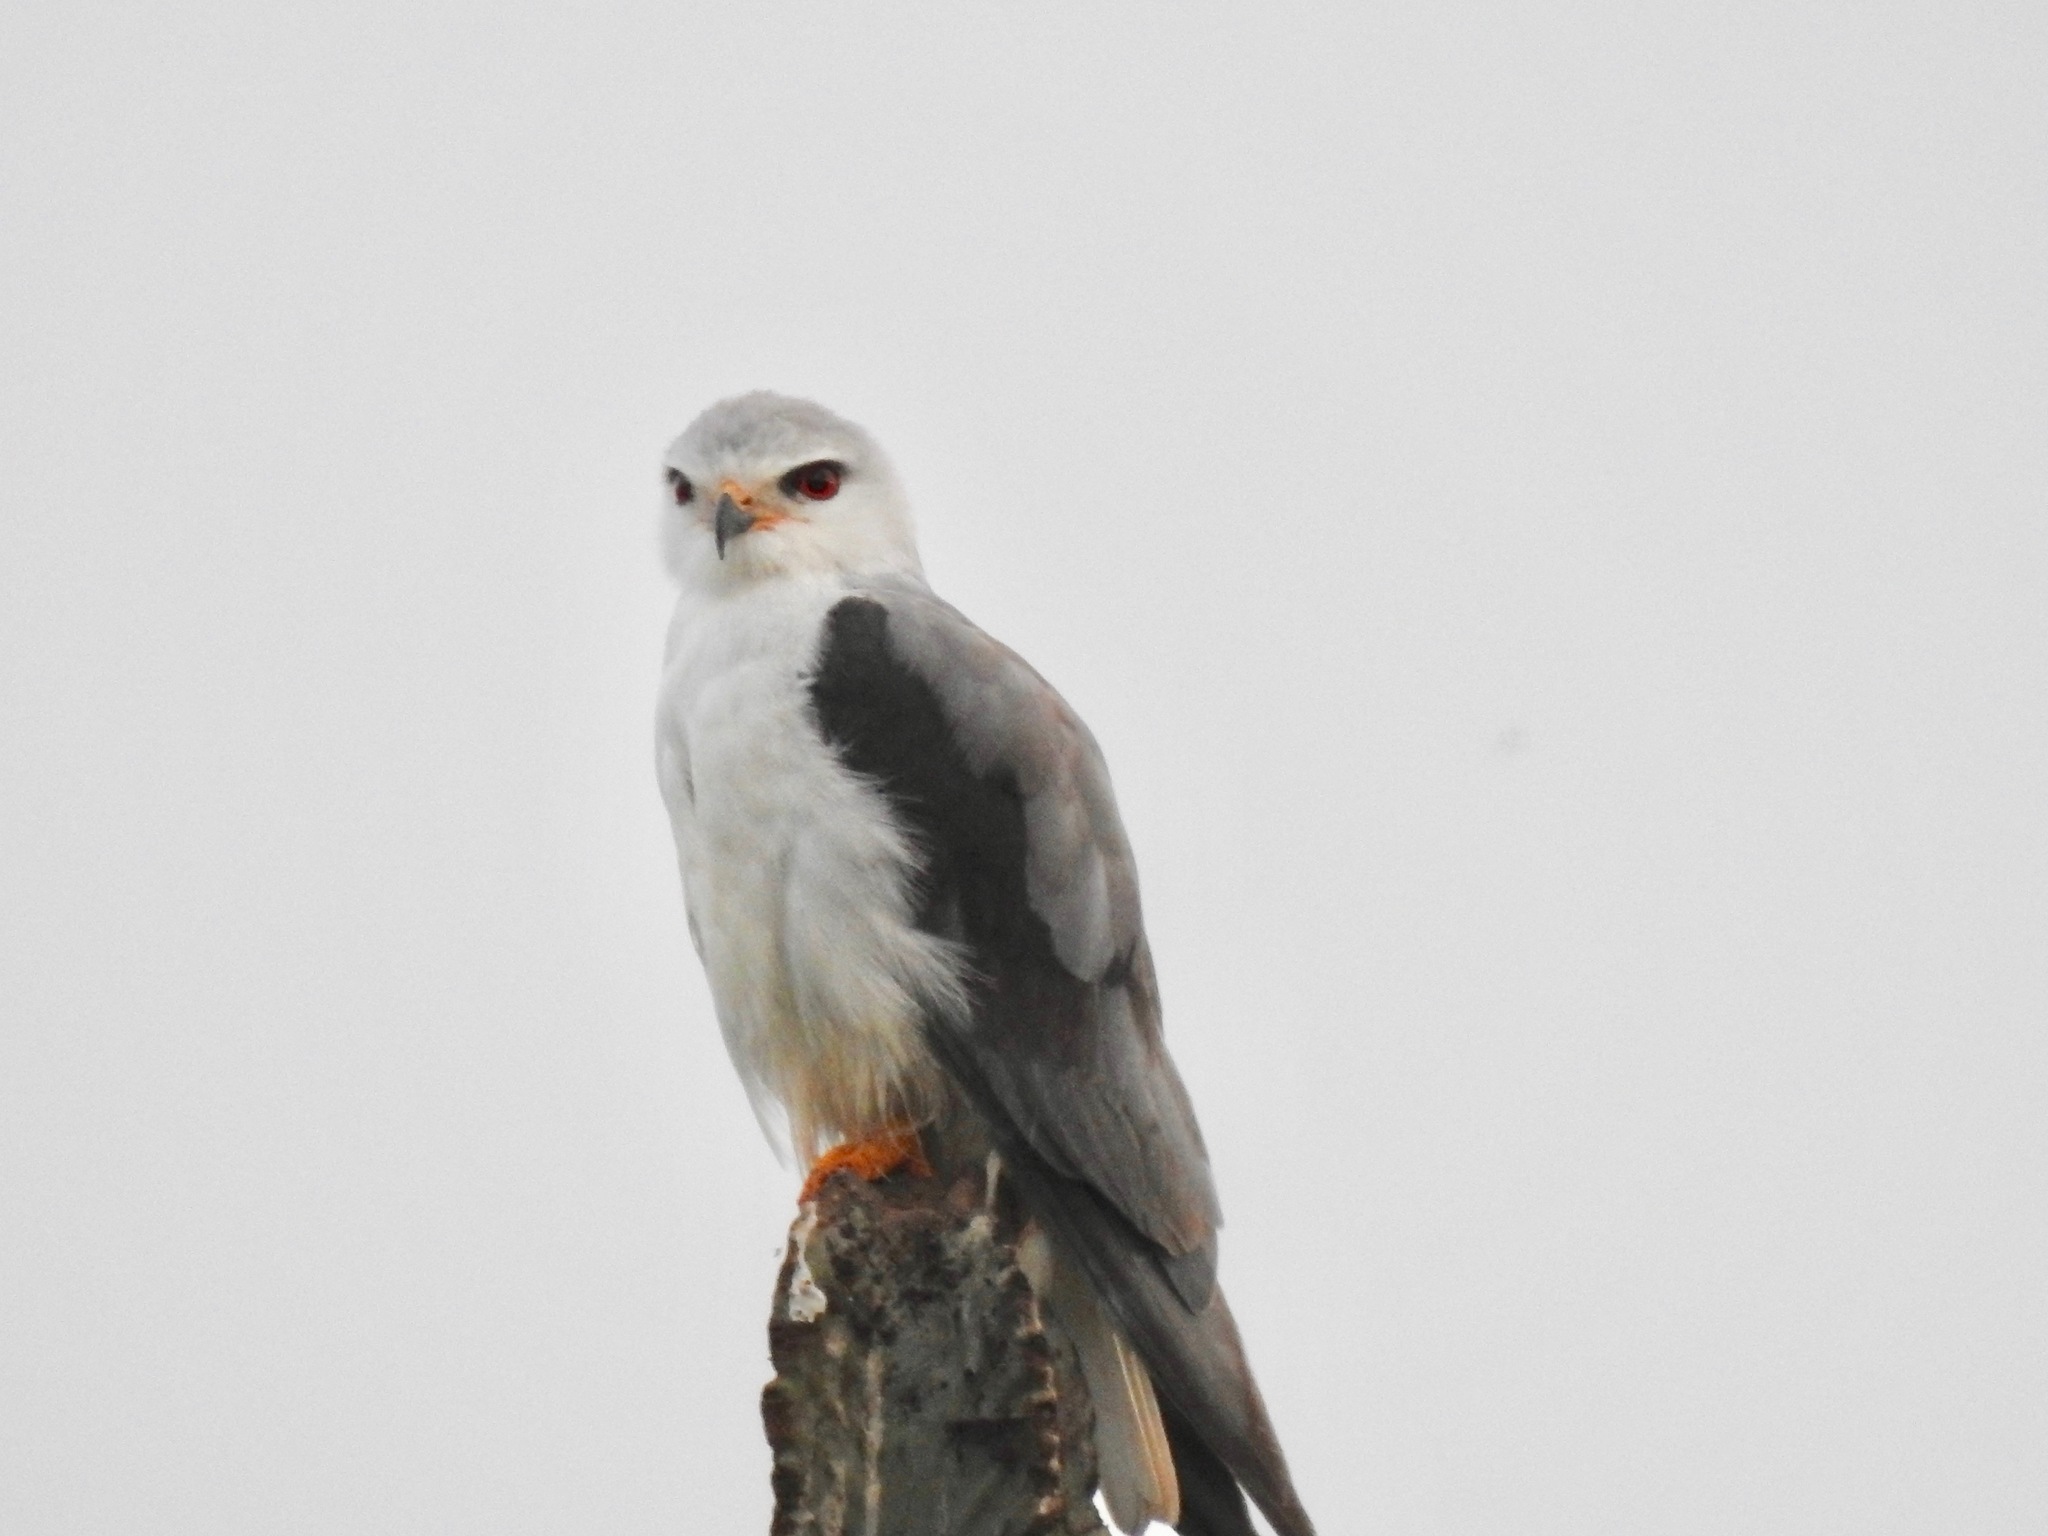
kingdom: Animalia
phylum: Chordata
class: Aves
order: Accipitriformes
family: Accipitridae
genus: Elanus
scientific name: Elanus caeruleus
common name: Black-winged kite
